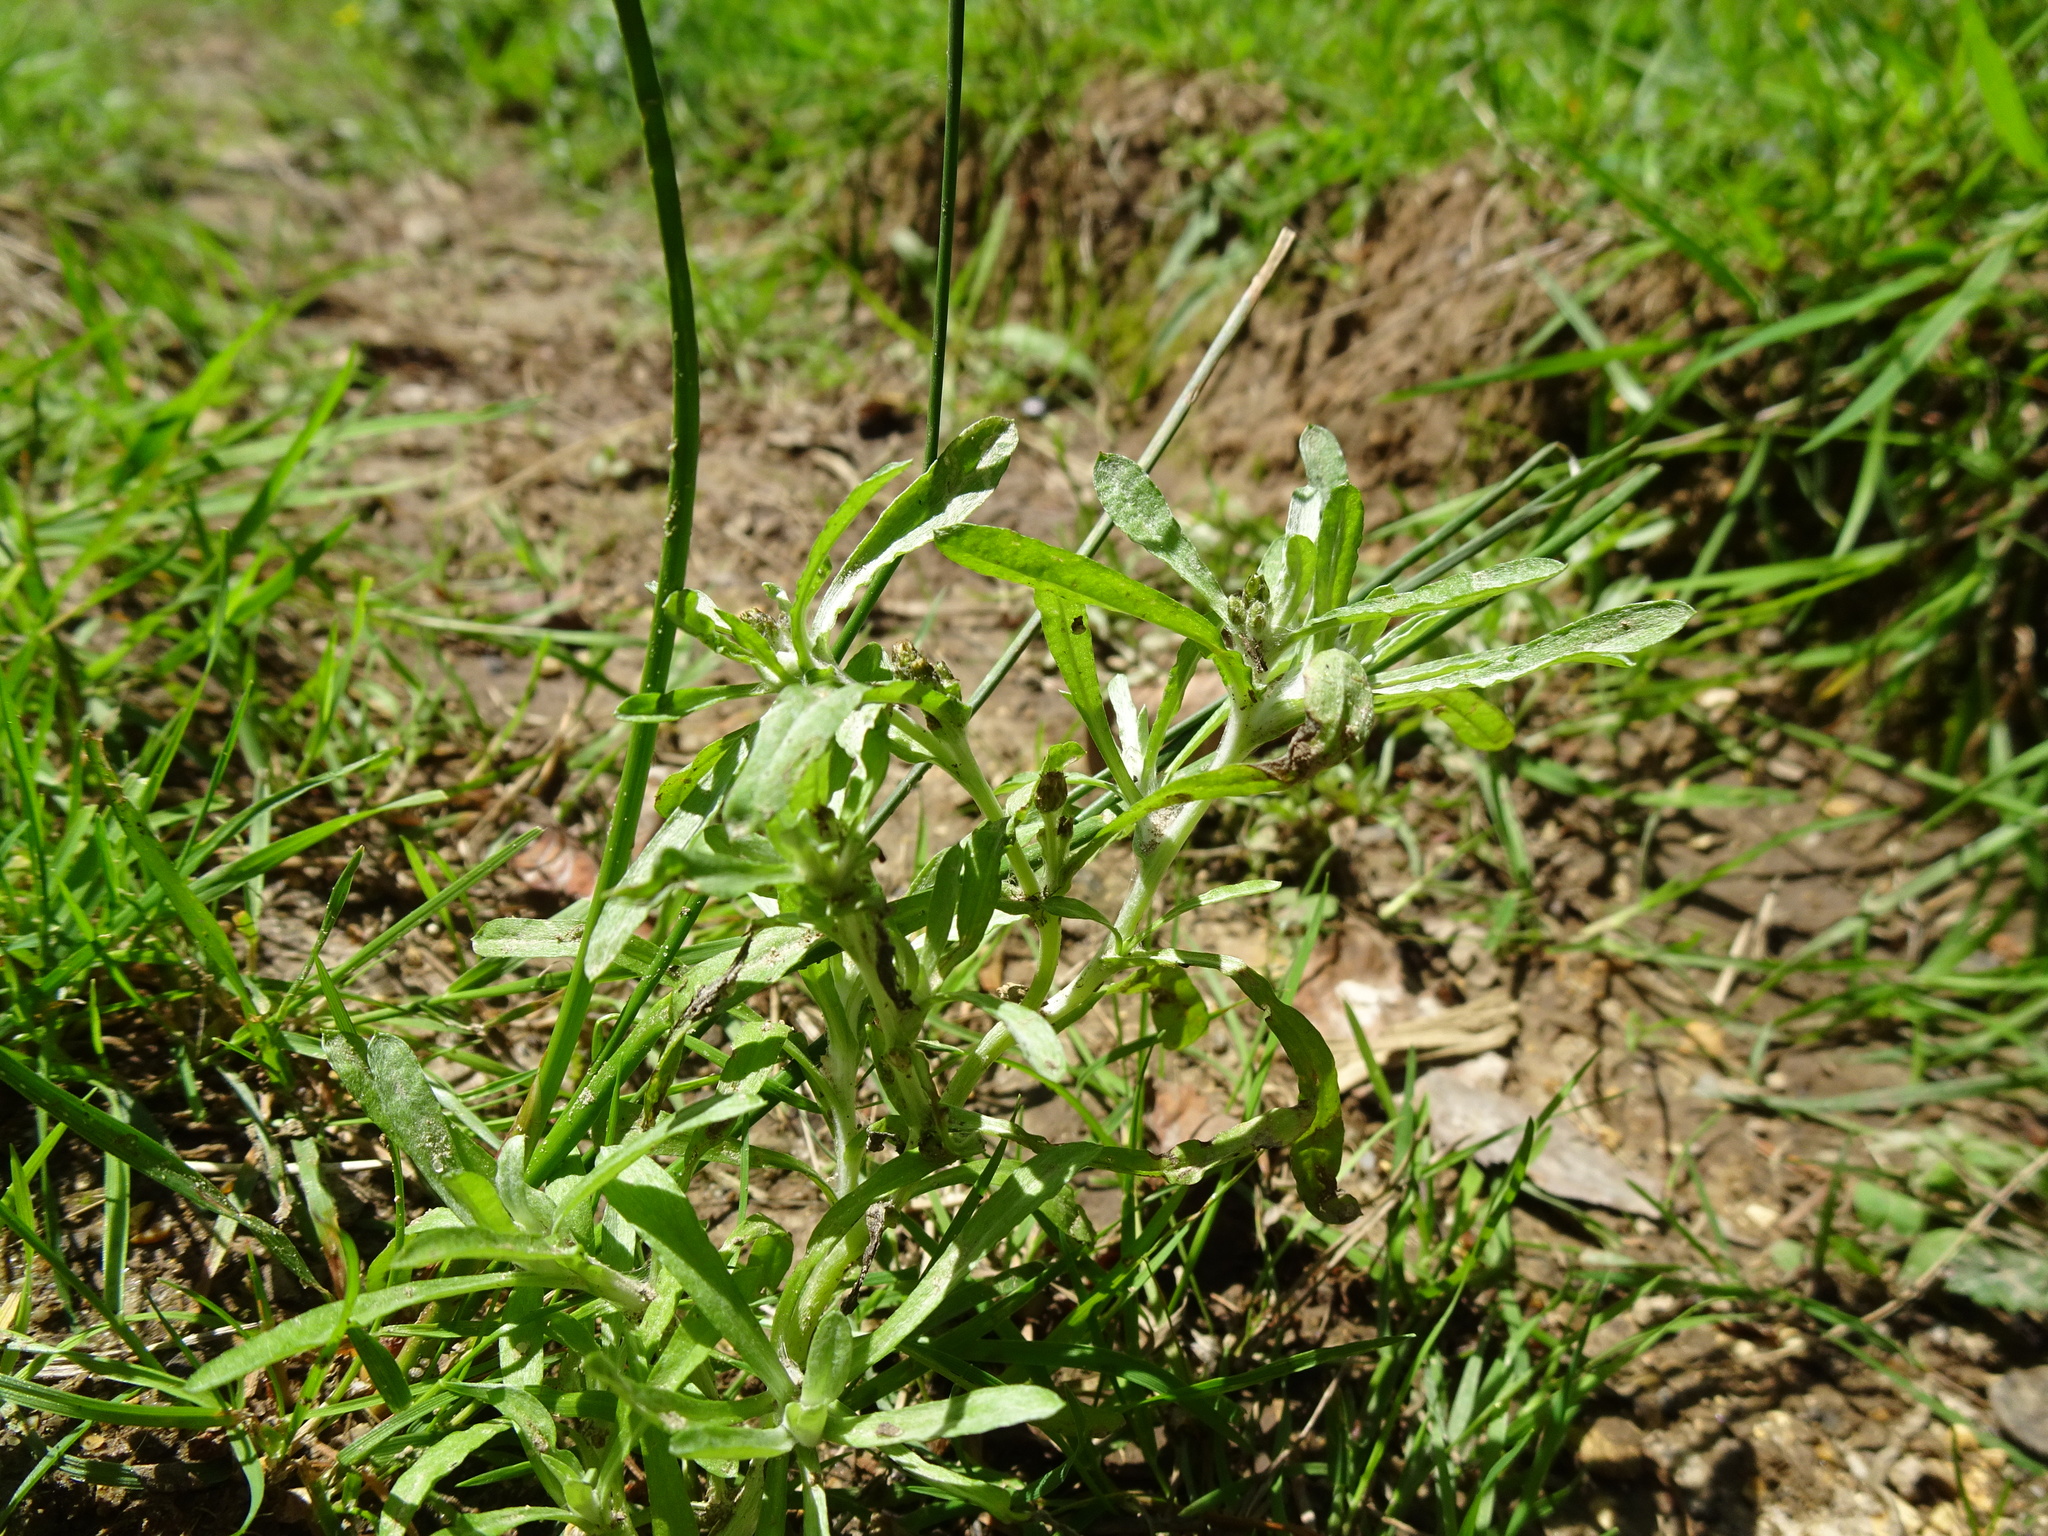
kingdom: Plantae
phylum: Tracheophyta
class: Magnoliopsida
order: Asterales
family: Asteraceae
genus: Gnaphalium
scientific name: Gnaphalium uliginosum
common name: Marsh cudweed
